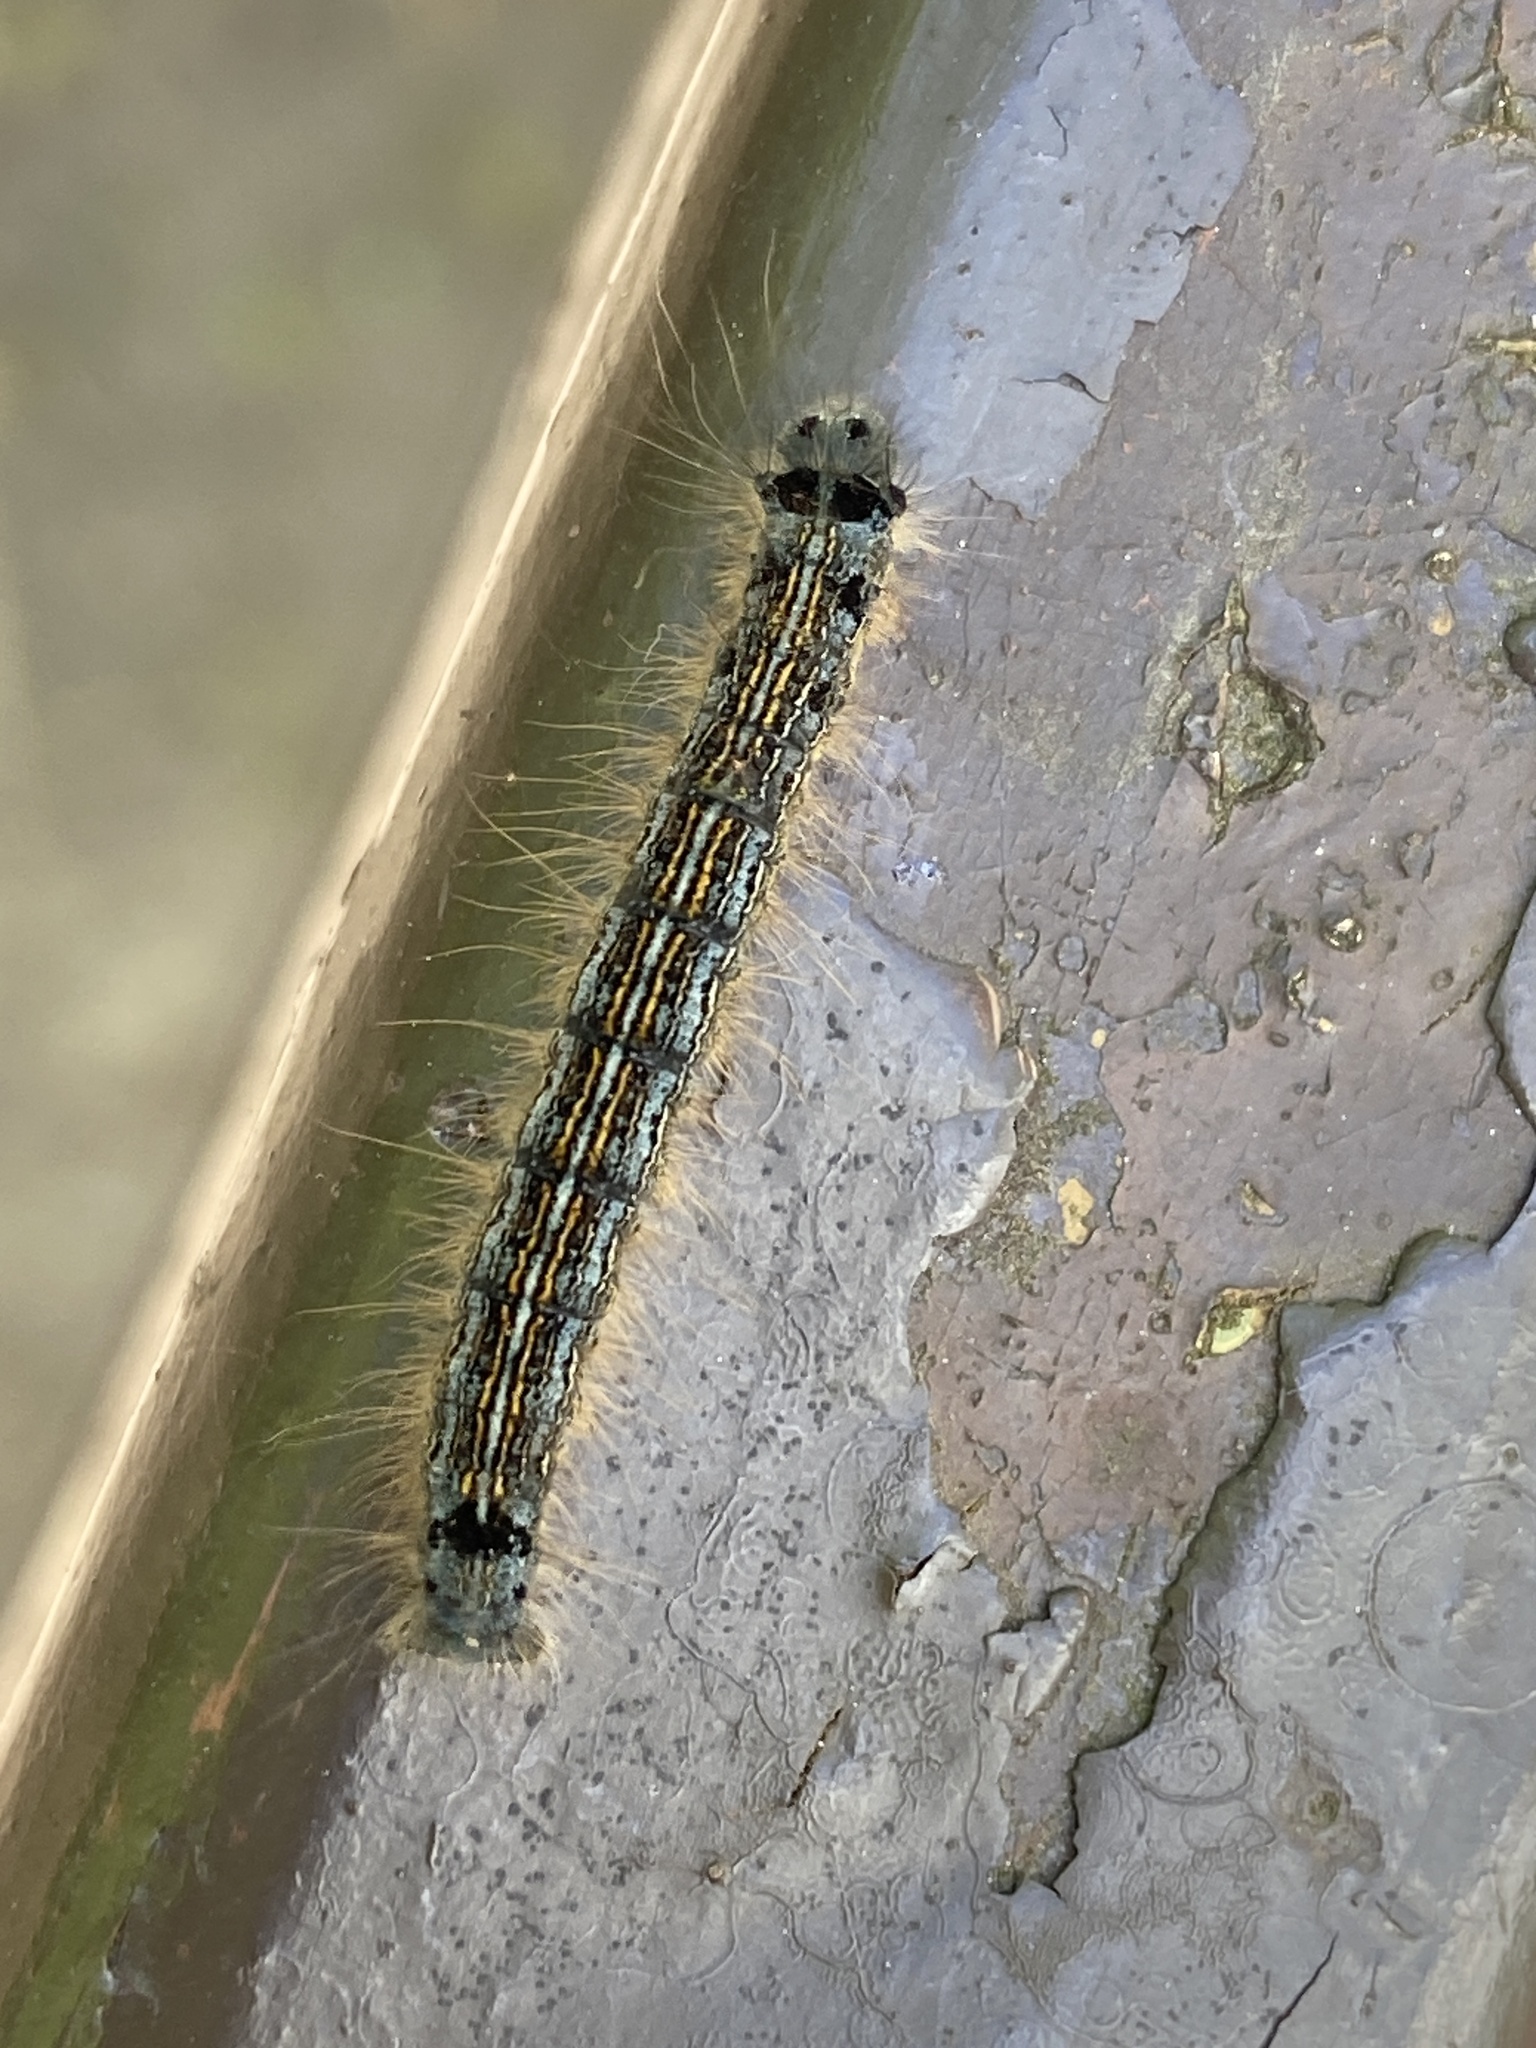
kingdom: Animalia
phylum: Arthropoda
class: Insecta
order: Lepidoptera
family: Lasiocampidae
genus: Malacosoma
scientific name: Malacosoma neustria
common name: The lackey
